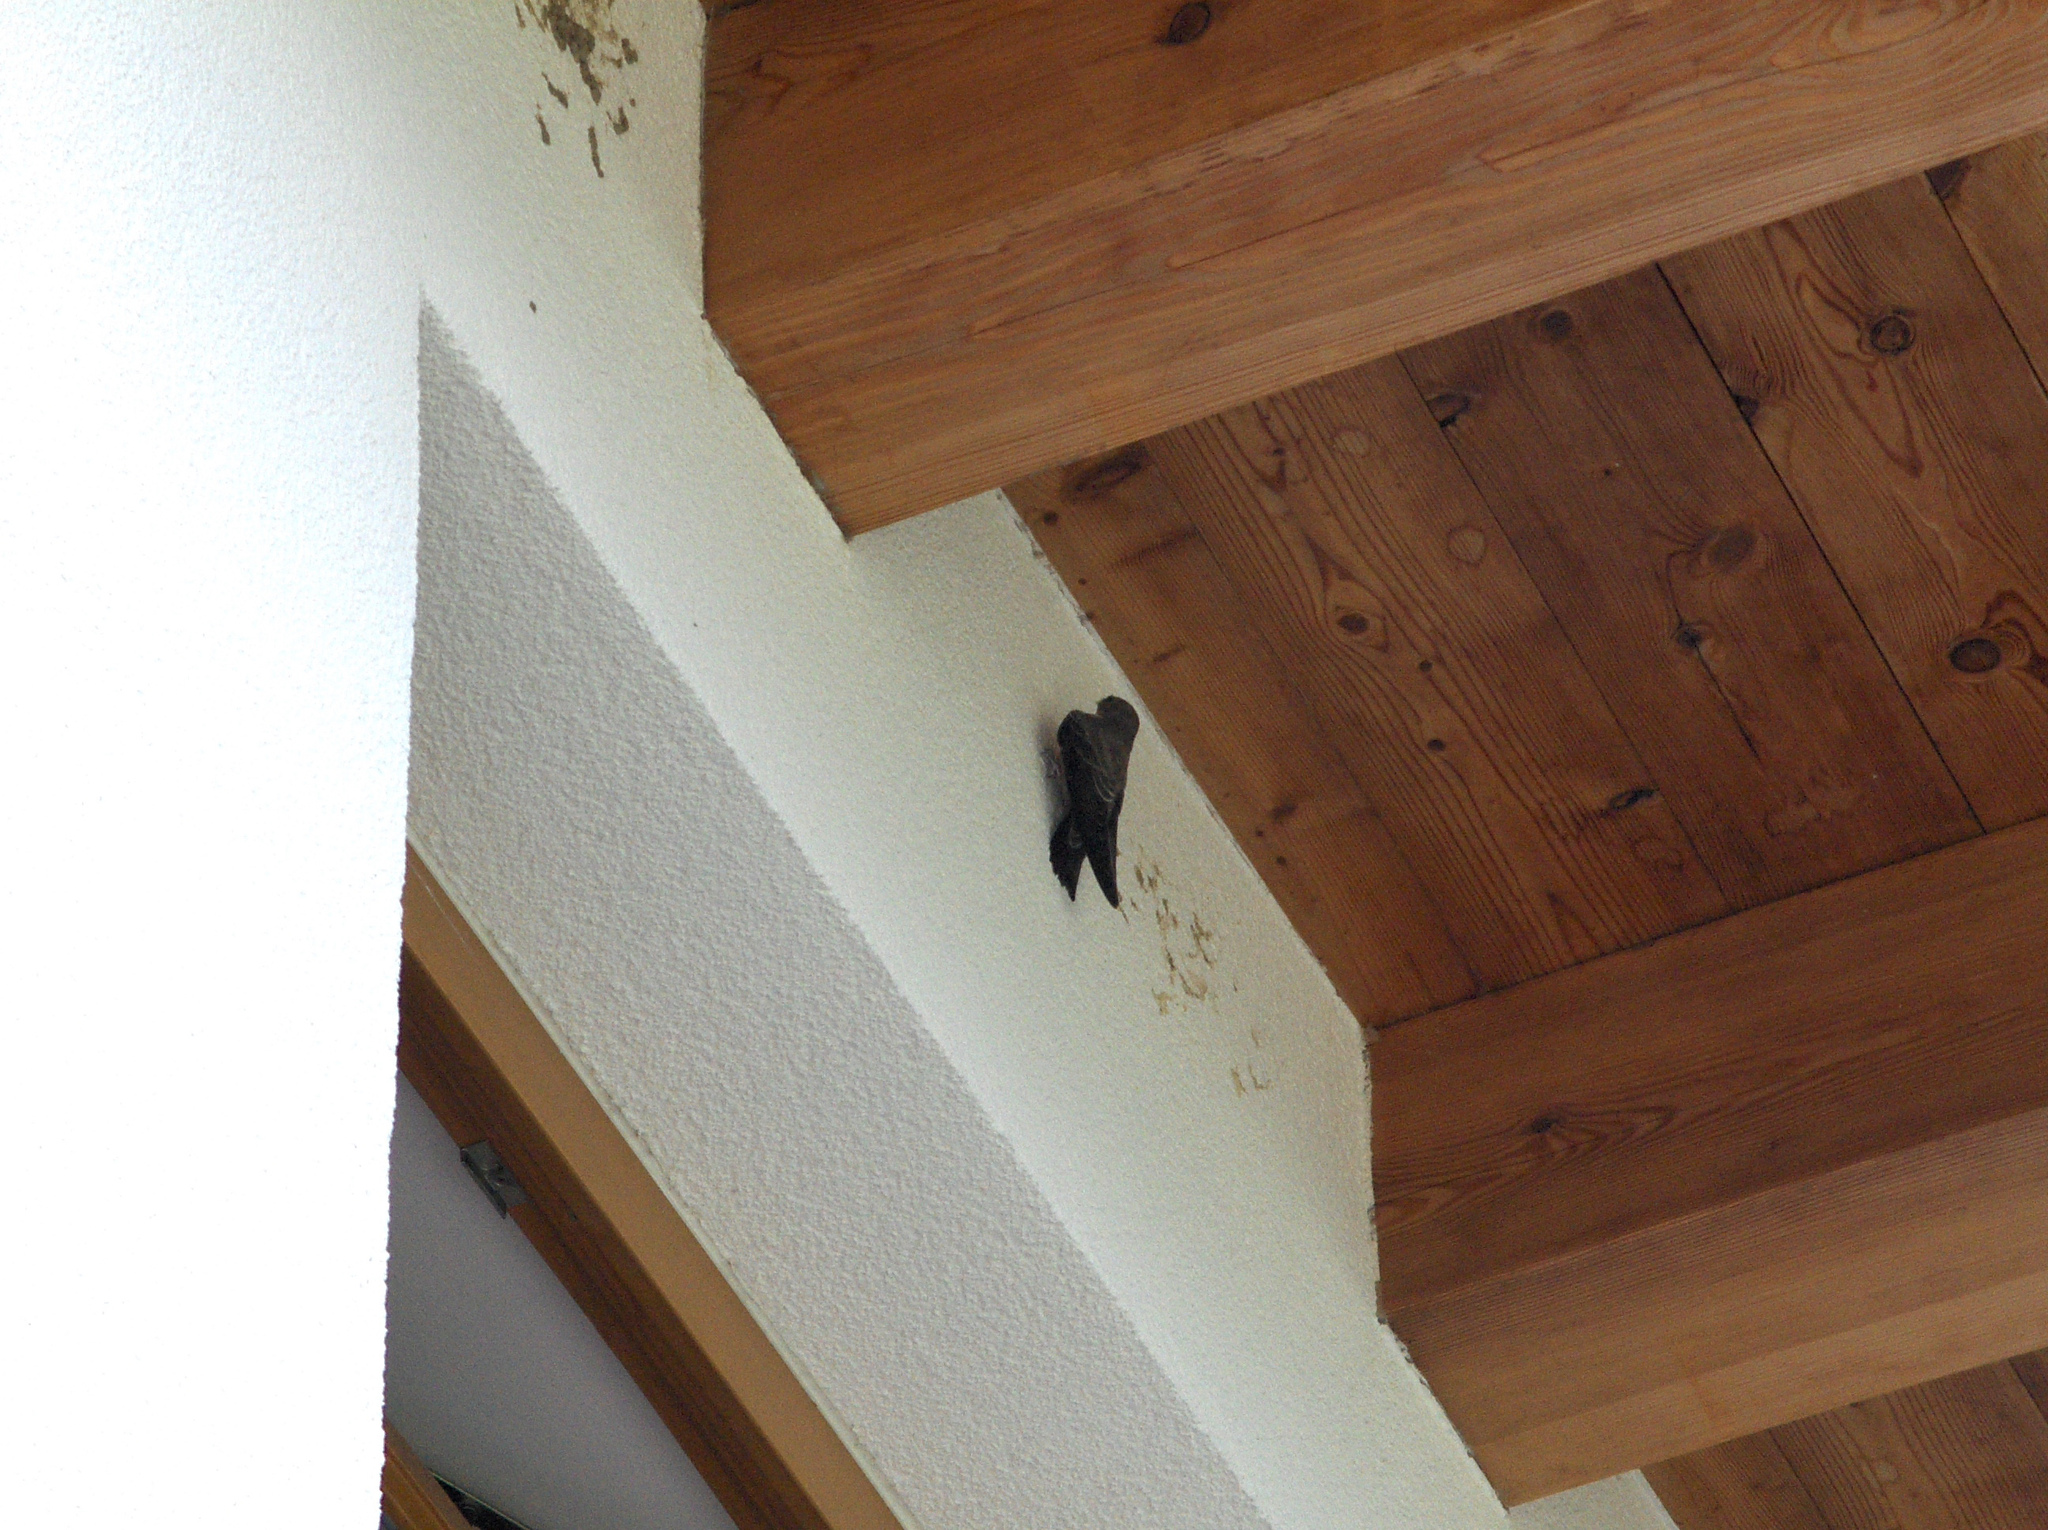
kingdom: Animalia
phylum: Chordata
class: Aves
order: Passeriformes
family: Hirundinidae
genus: Ptyonoprogne
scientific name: Ptyonoprogne rupestris
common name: Eurasian crag martin
